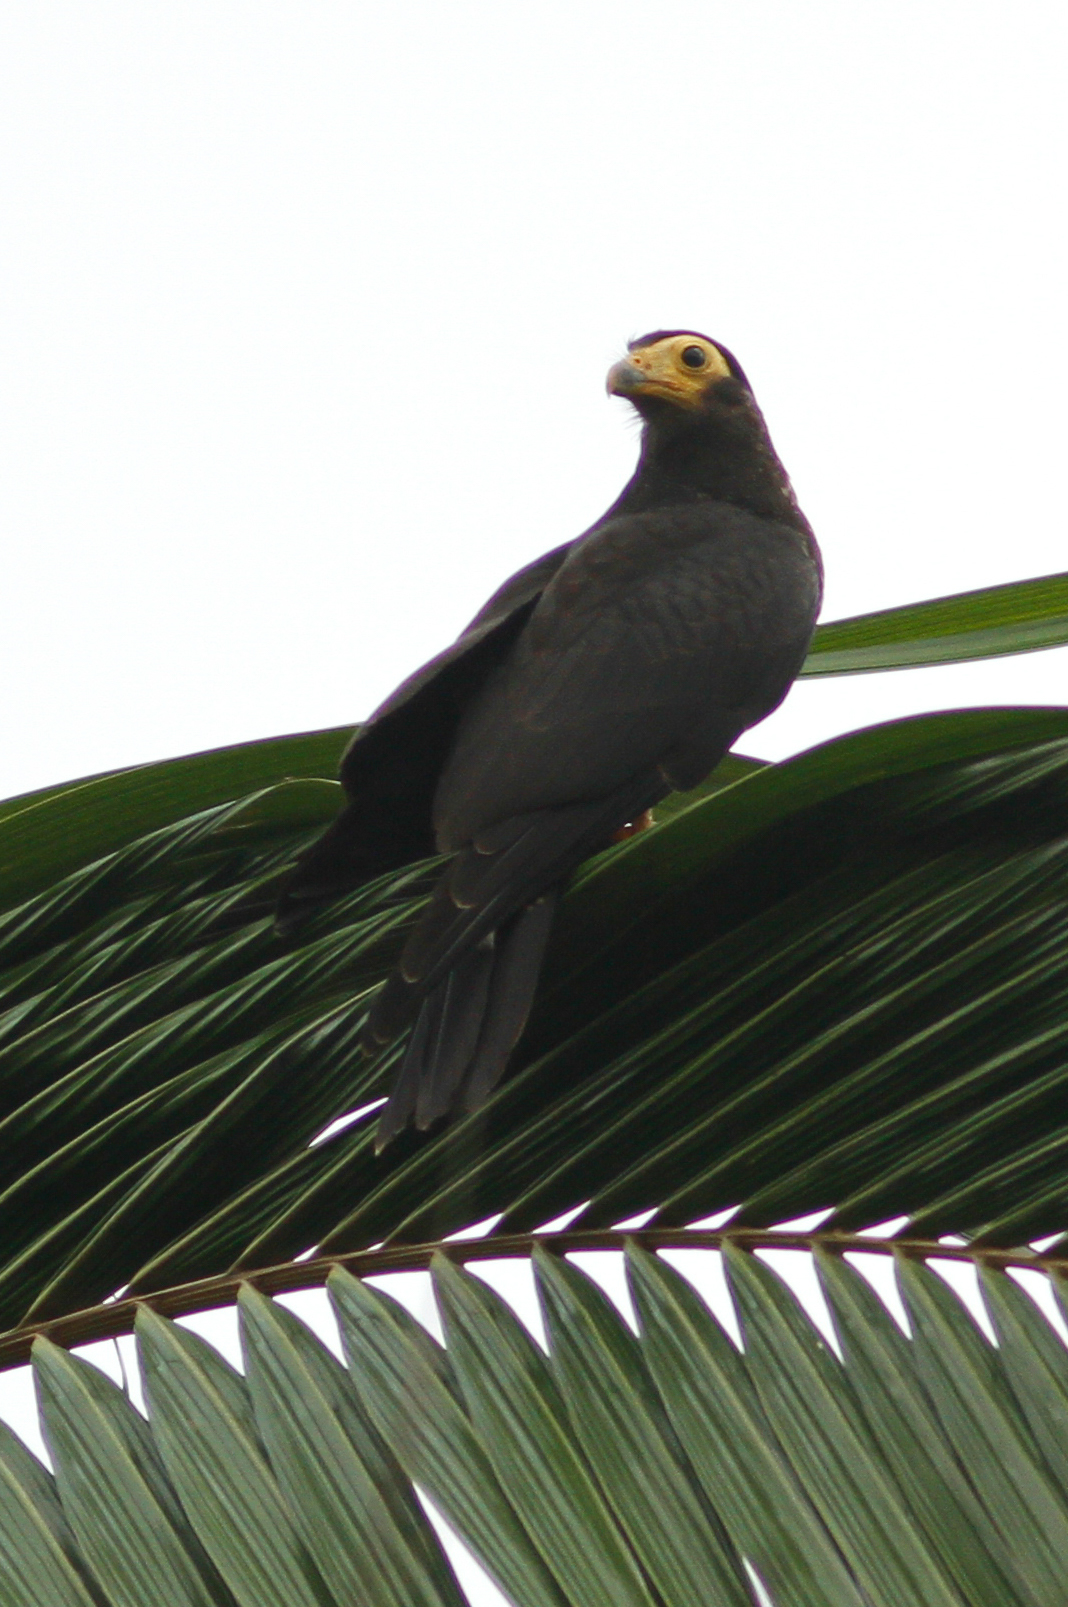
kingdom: Animalia
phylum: Chordata
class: Aves
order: Falconiformes
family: Falconidae
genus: Daptrius
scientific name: Daptrius ater
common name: Black caracara
